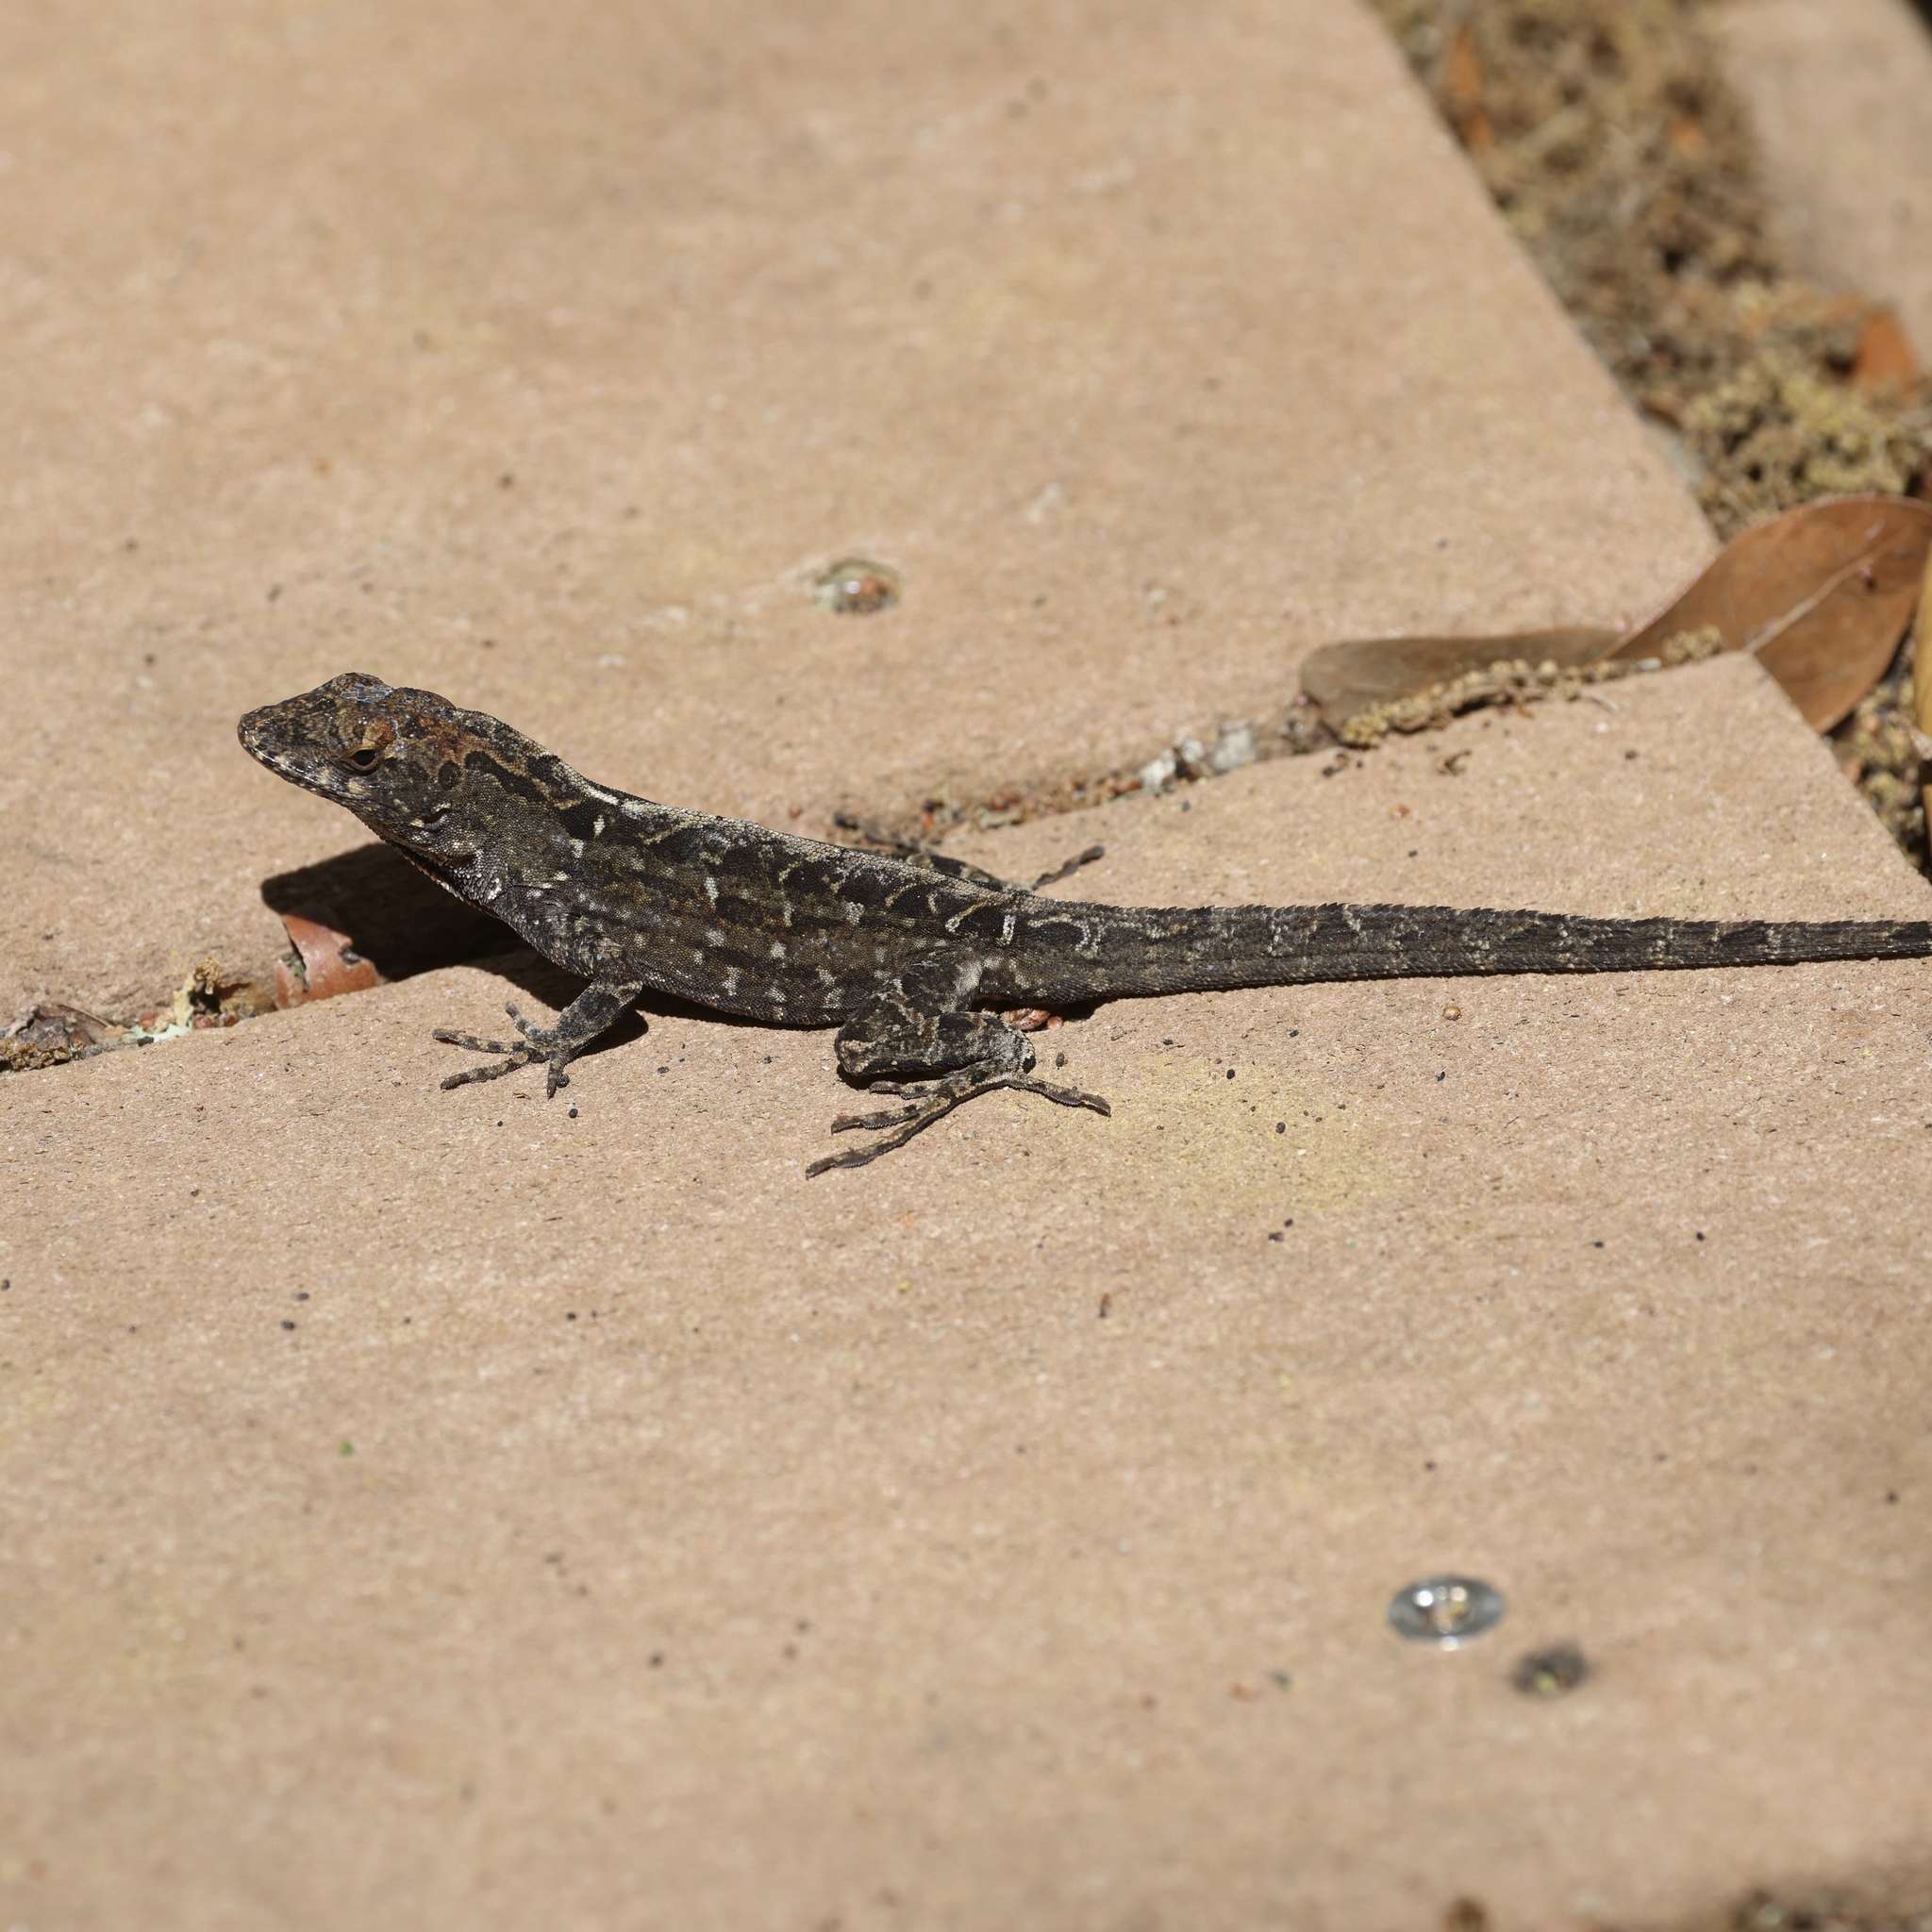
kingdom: Animalia
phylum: Chordata
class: Squamata
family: Dactyloidae
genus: Anolis
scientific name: Anolis sagrei
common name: Brown anole
